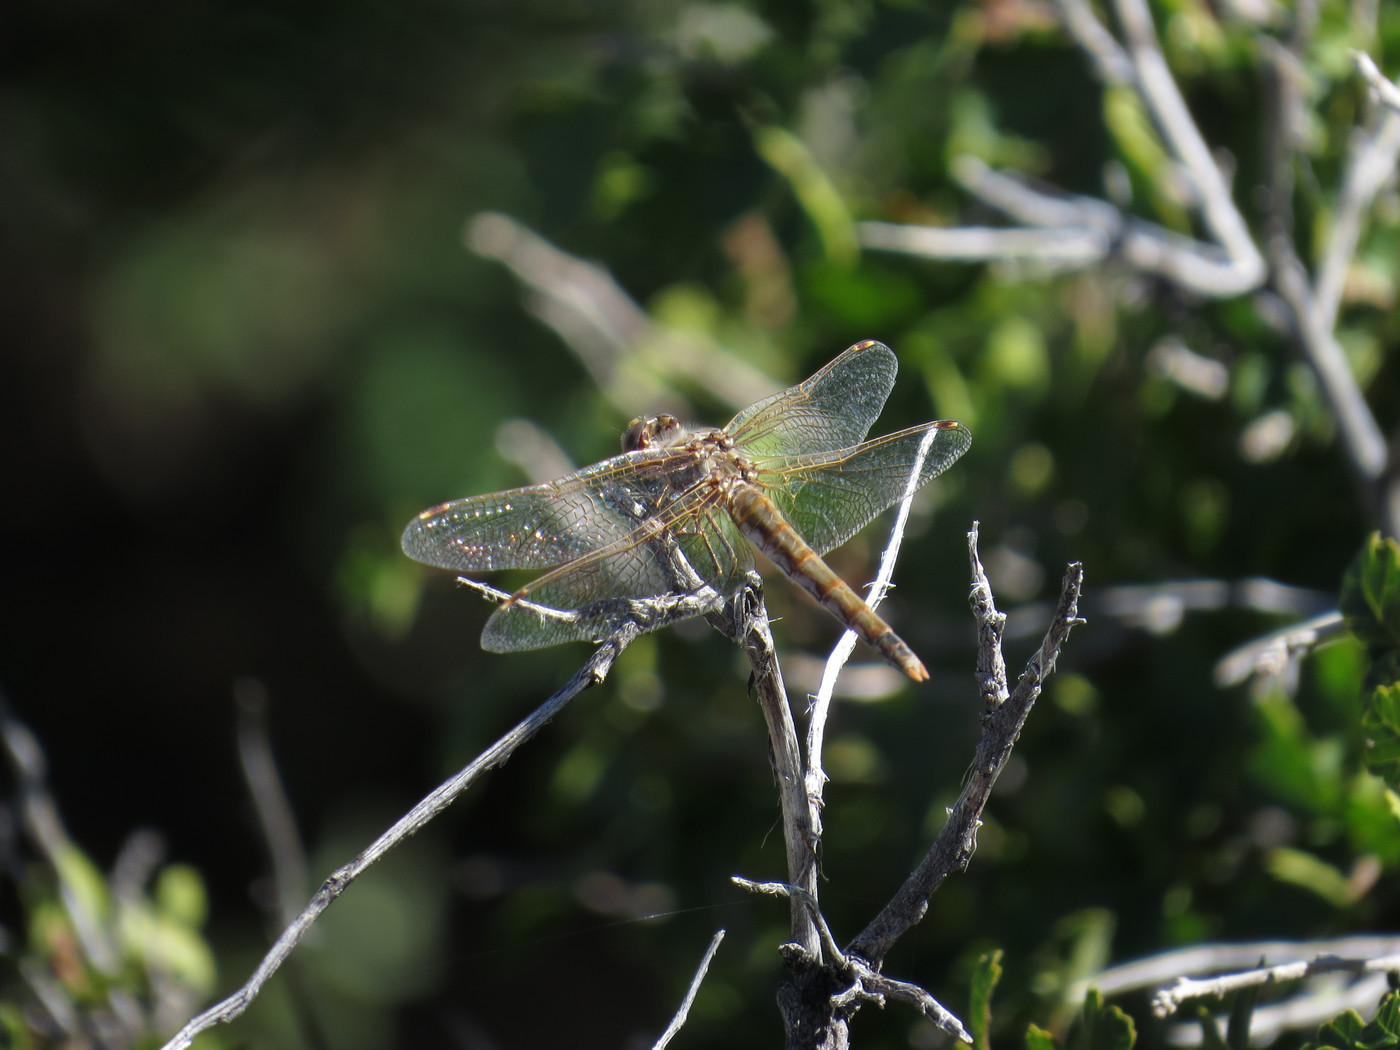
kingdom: Animalia
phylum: Arthropoda
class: Insecta
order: Odonata
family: Libellulidae
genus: Sympetrum
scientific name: Sympetrum corruptum
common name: Variegated meadowhawk
